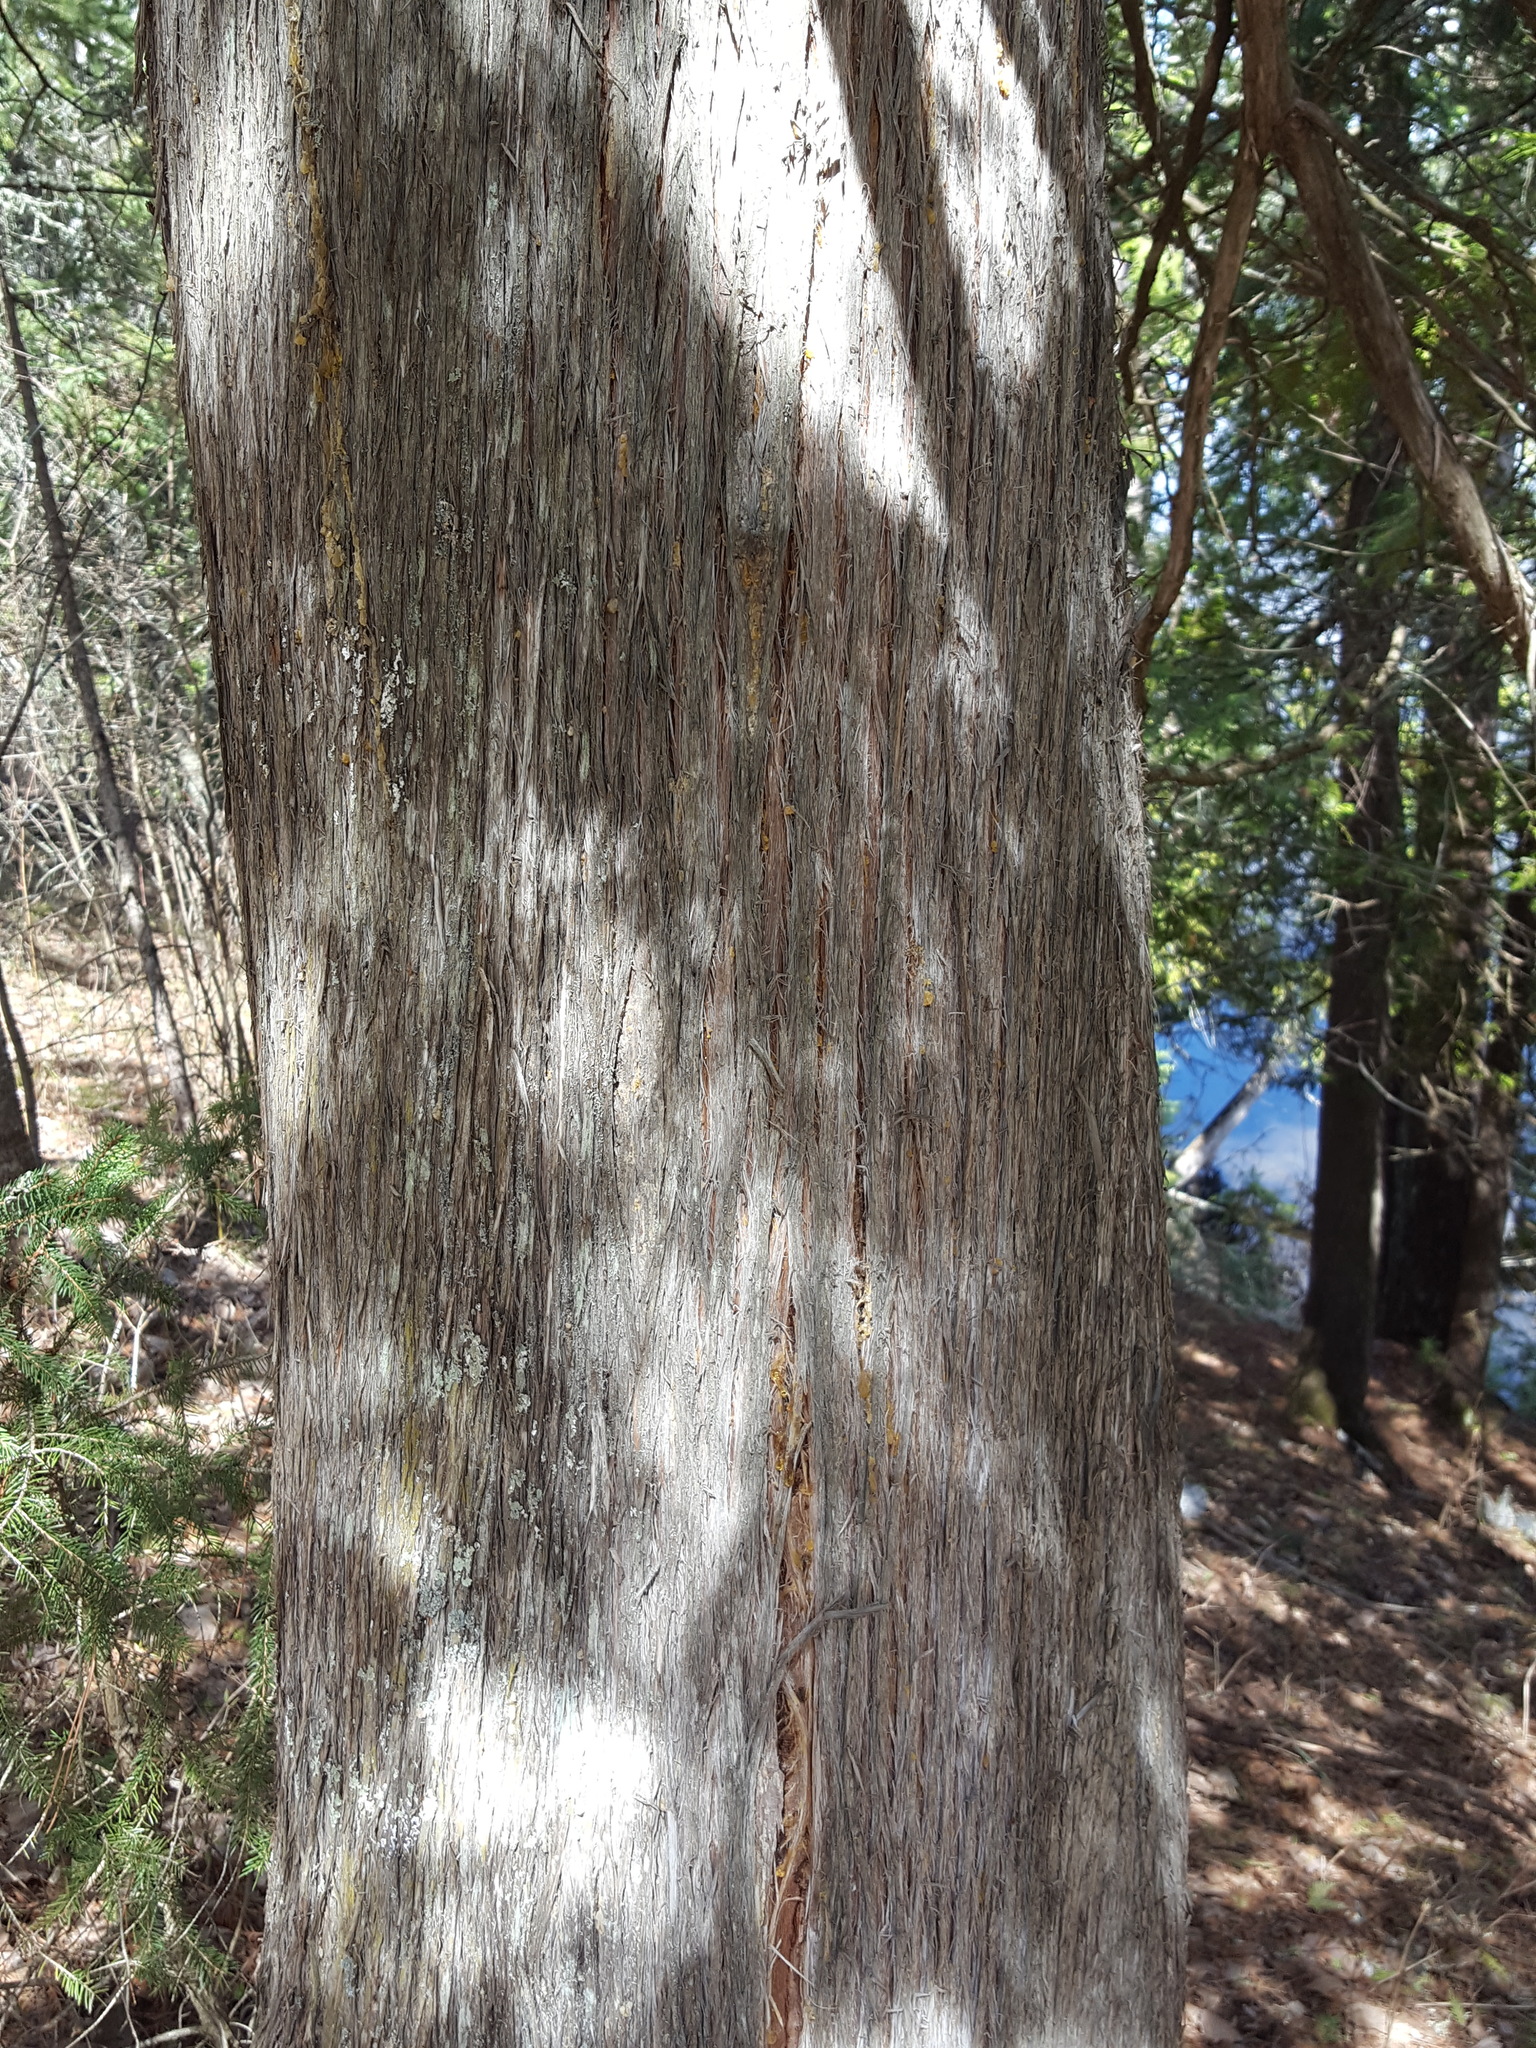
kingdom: Plantae
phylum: Tracheophyta
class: Pinopsida
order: Pinales
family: Cupressaceae
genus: Thuja
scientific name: Thuja occidentalis
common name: Northern white-cedar
